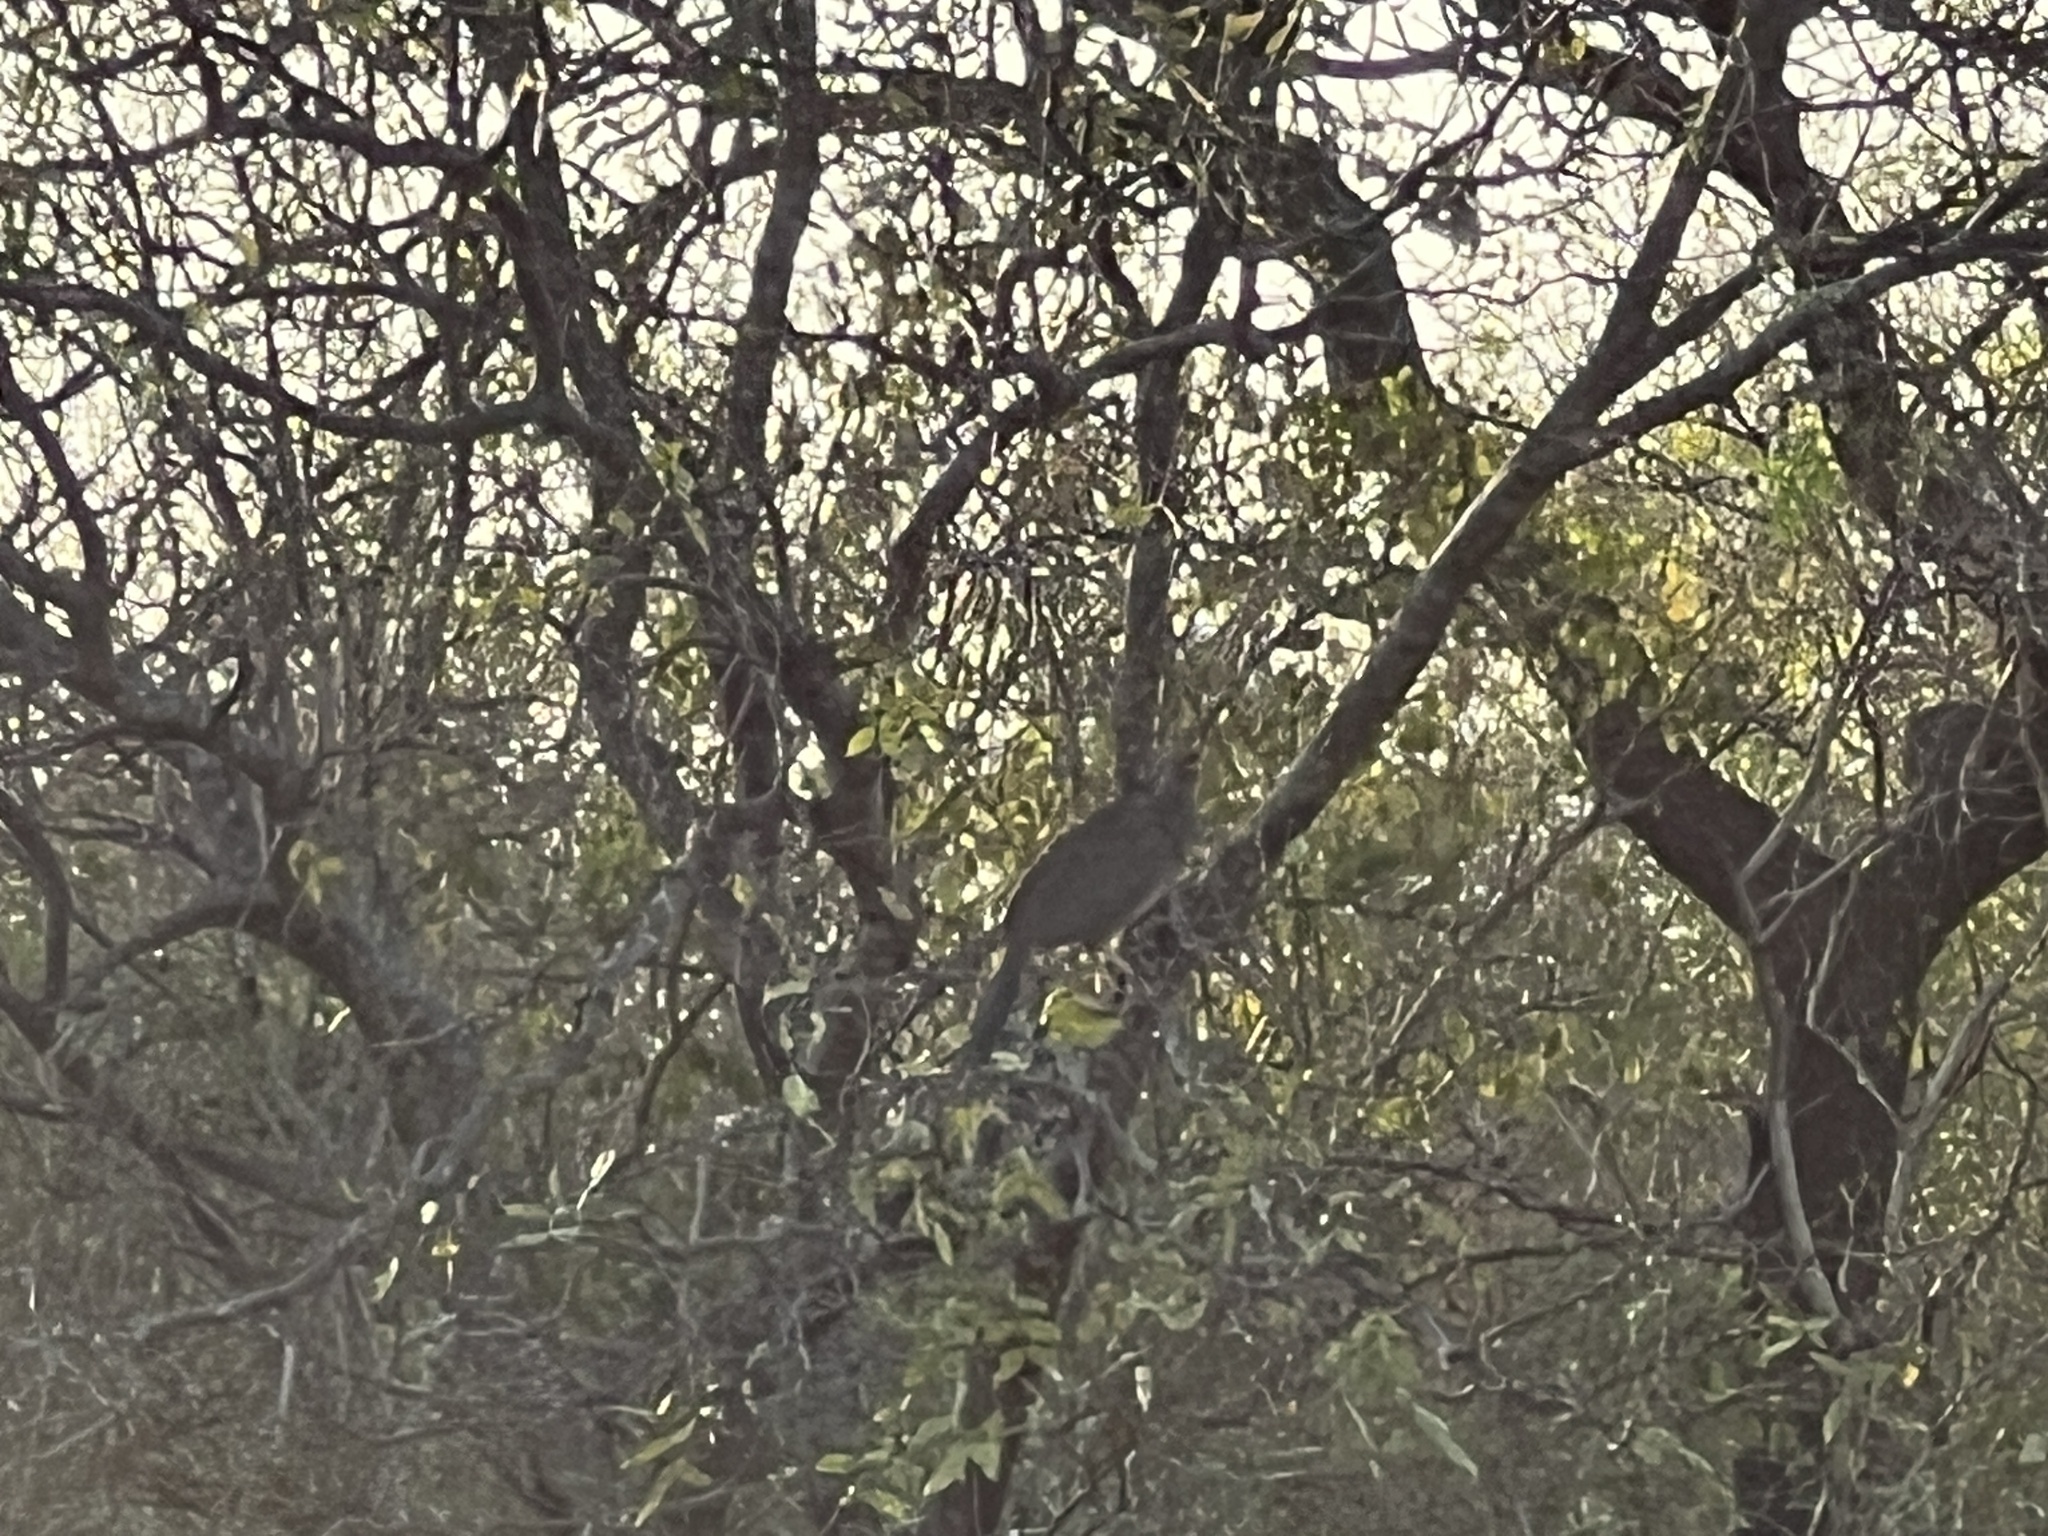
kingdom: Animalia
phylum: Chordata
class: Aves
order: Galliformes
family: Cracidae
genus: Ortalis
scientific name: Ortalis canicollis
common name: Chaco chachalaca
